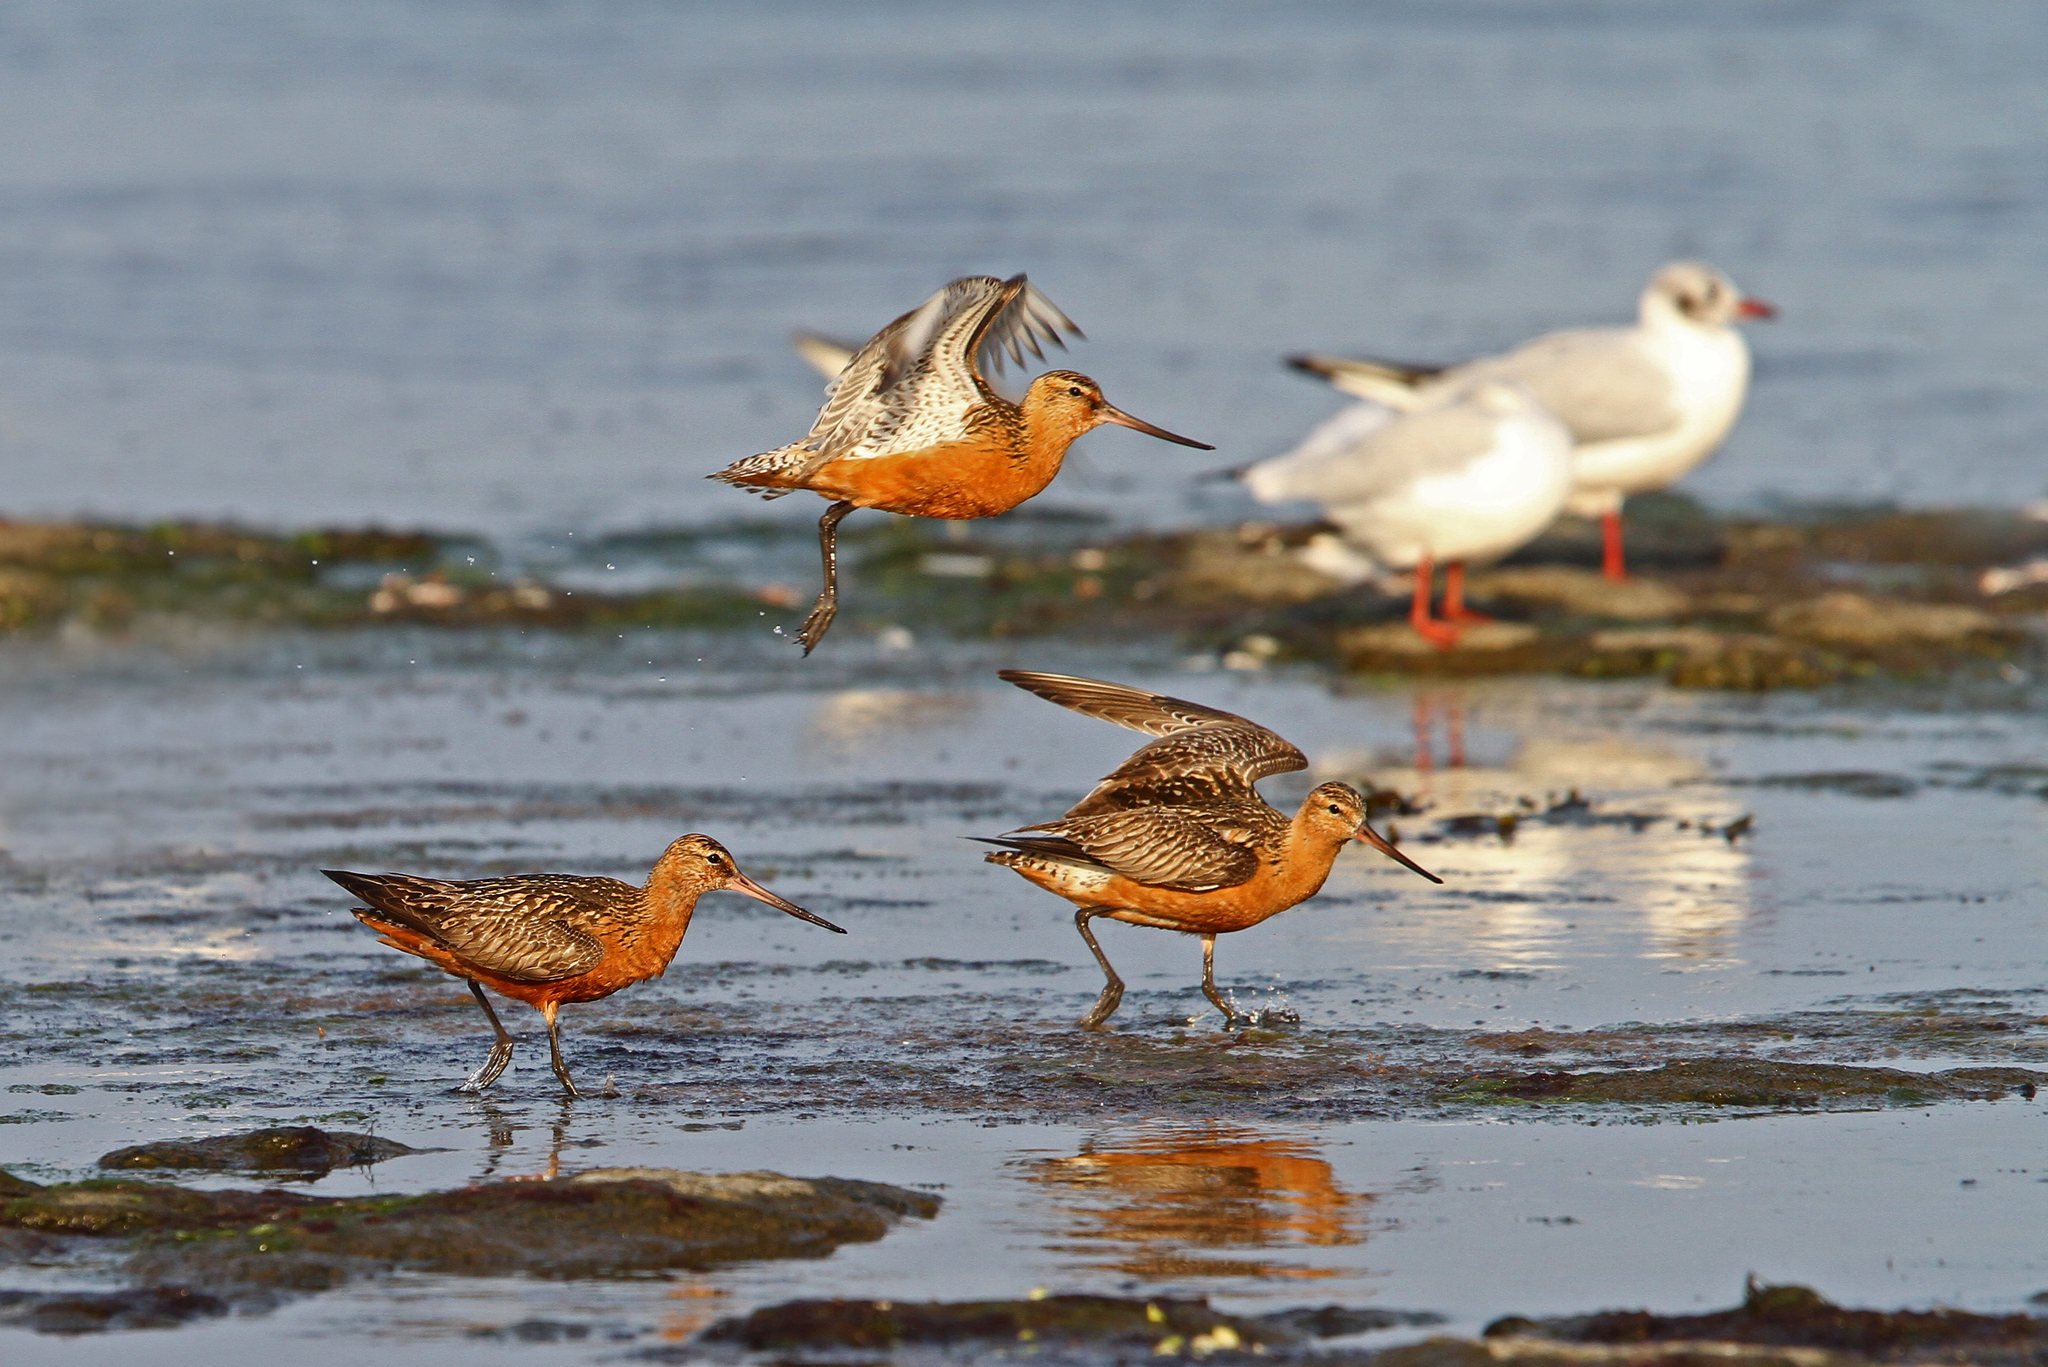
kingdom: Animalia
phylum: Chordata
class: Aves
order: Charadriiformes
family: Scolopacidae
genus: Limosa
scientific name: Limosa lapponica
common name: Bar-tailed godwit
